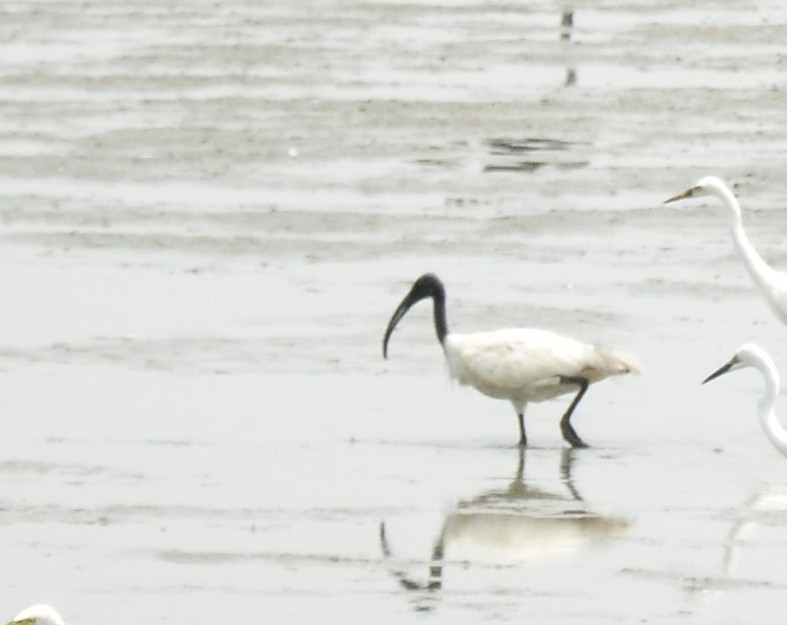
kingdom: Animalia
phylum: Chordata
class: Aves
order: Pelecaniformes
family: Threskiornithidae
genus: Threskiornis
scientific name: Threskiornis melanocephalus
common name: Black-headed ibis
